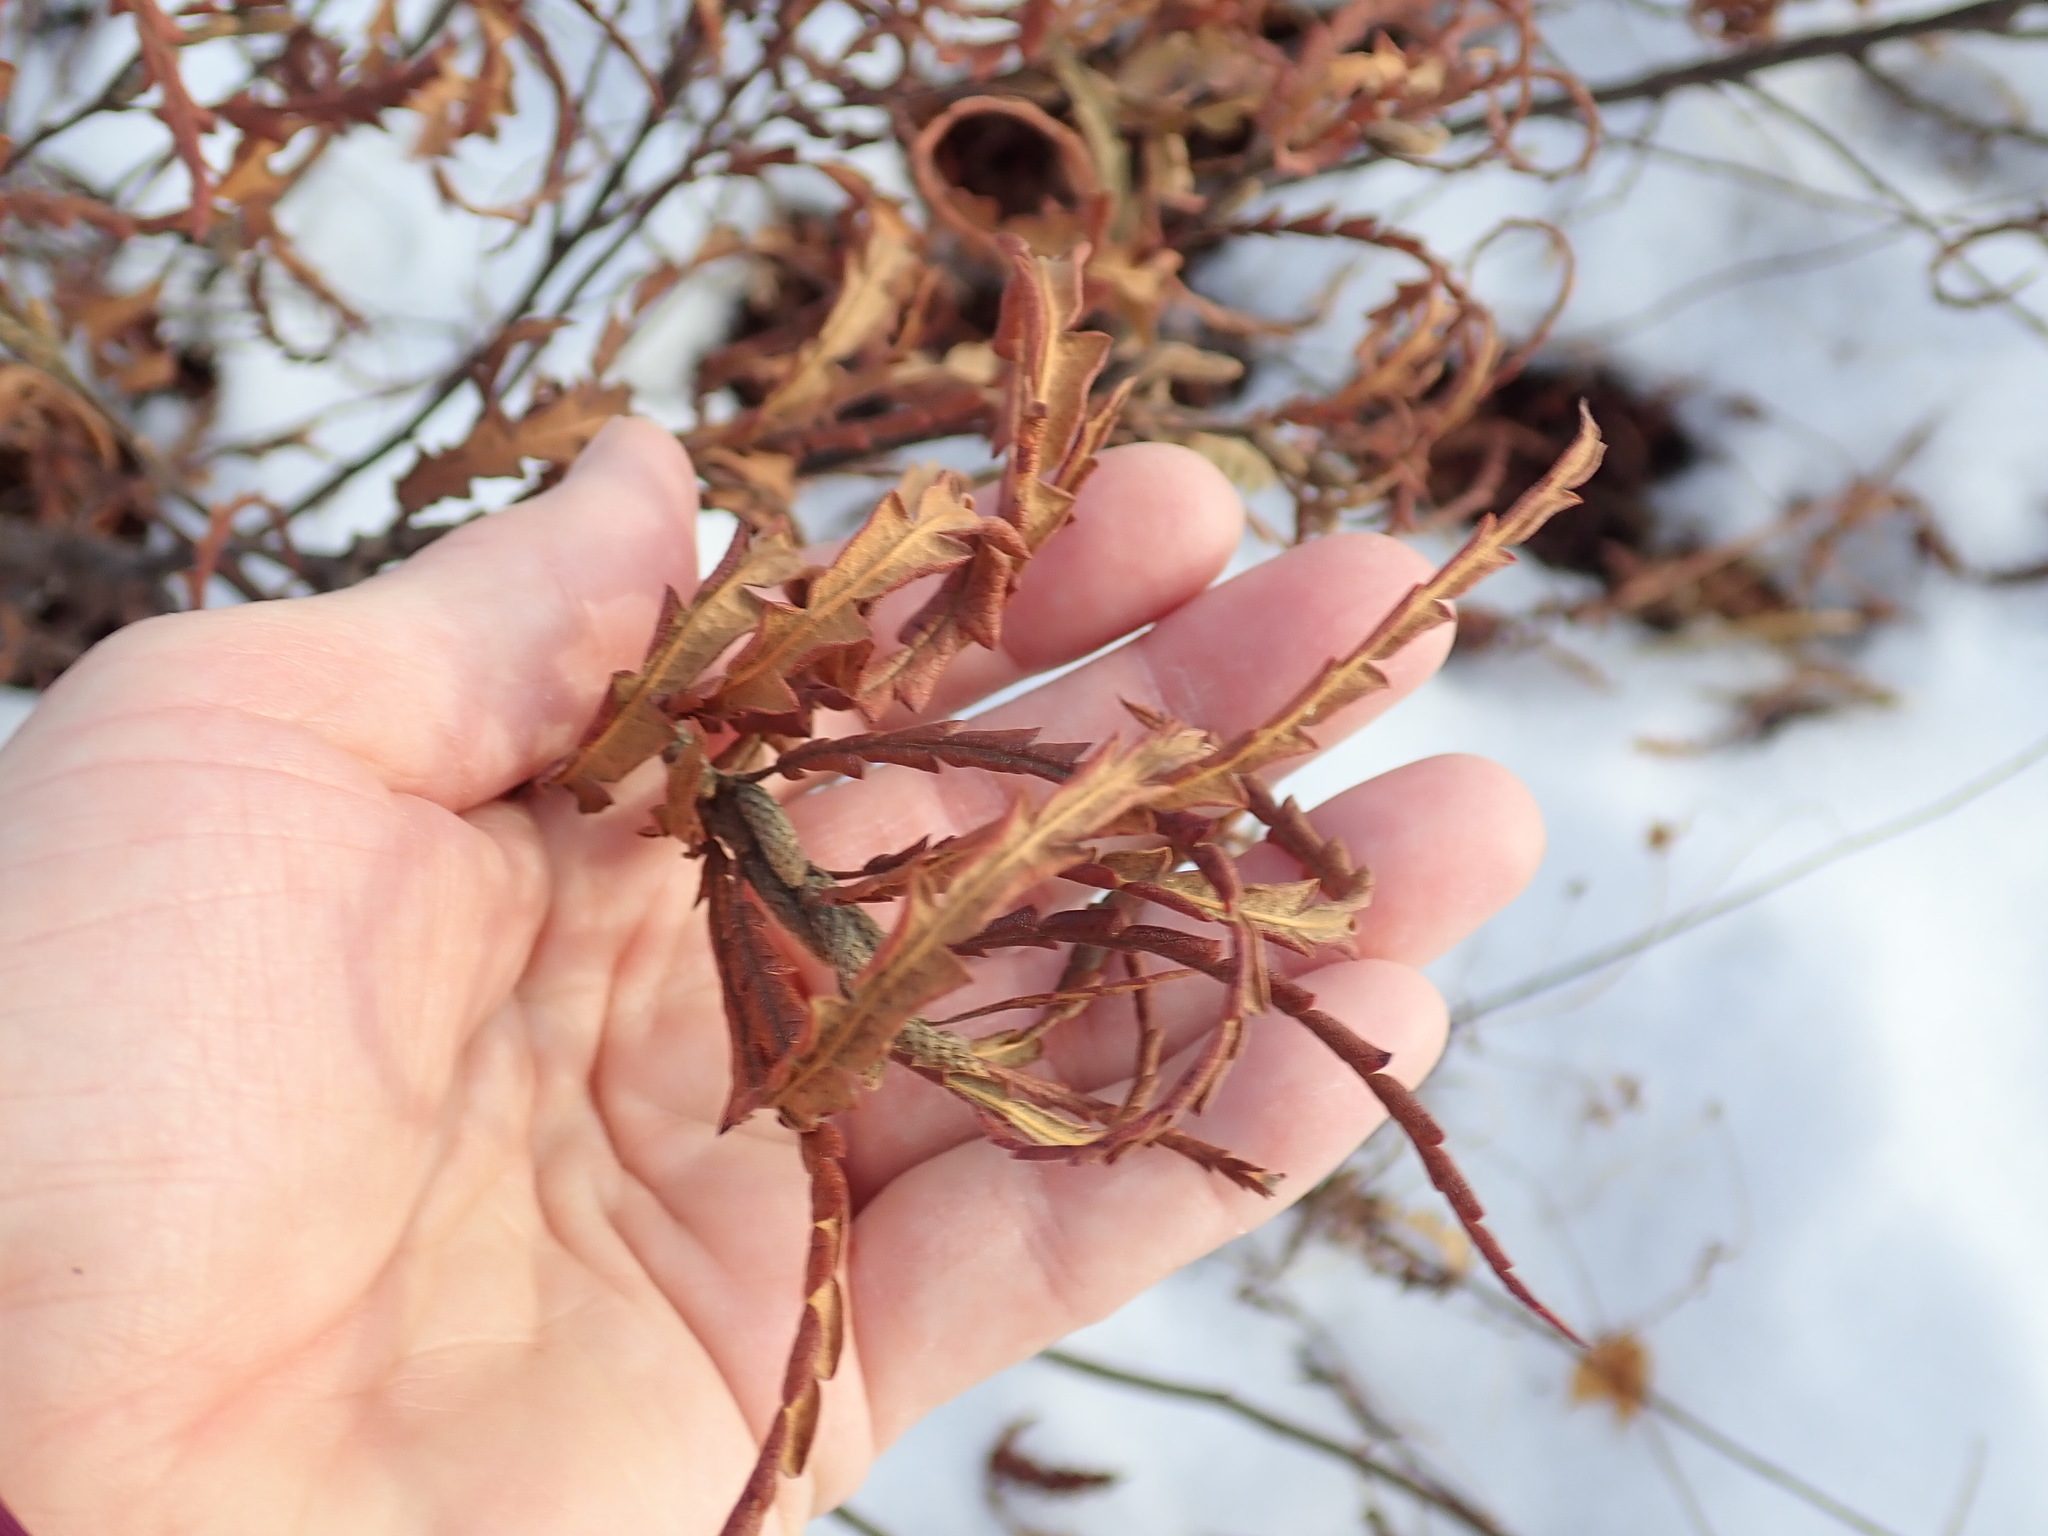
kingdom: Plantae
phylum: Tracheophyta
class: Magnoliopsida
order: Fagales
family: Myricaceae
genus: Comptonia
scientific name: Comptonia peregrina
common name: Sweet-fern
